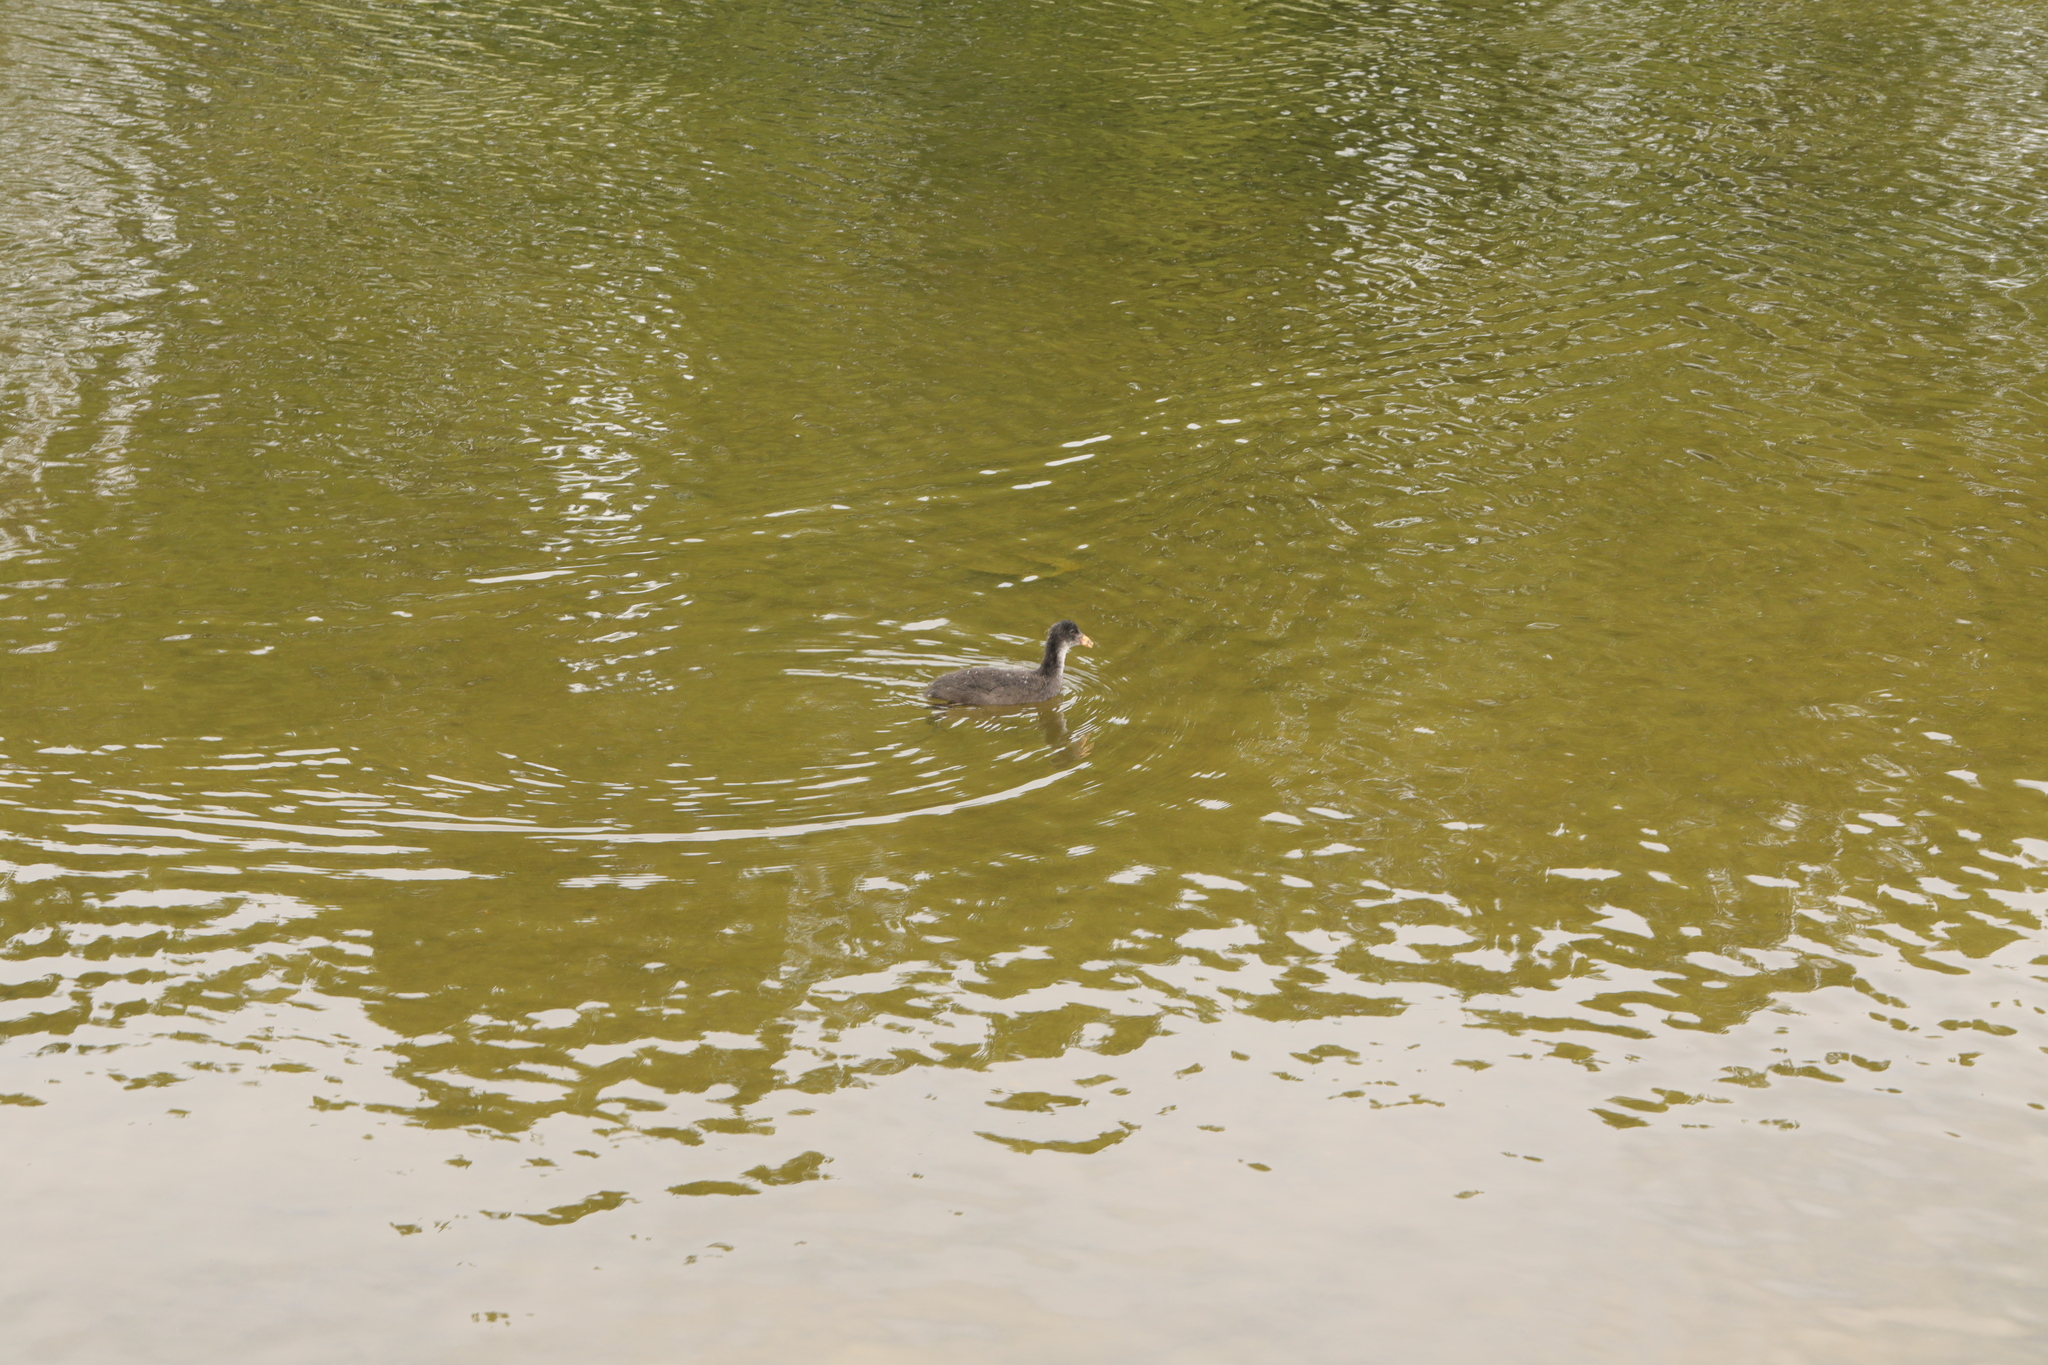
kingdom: Animalia
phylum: Chordata
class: Aves
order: Gruiformes
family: Rallidae
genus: Fulica
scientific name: Fulica atra
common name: Eurasian coot
